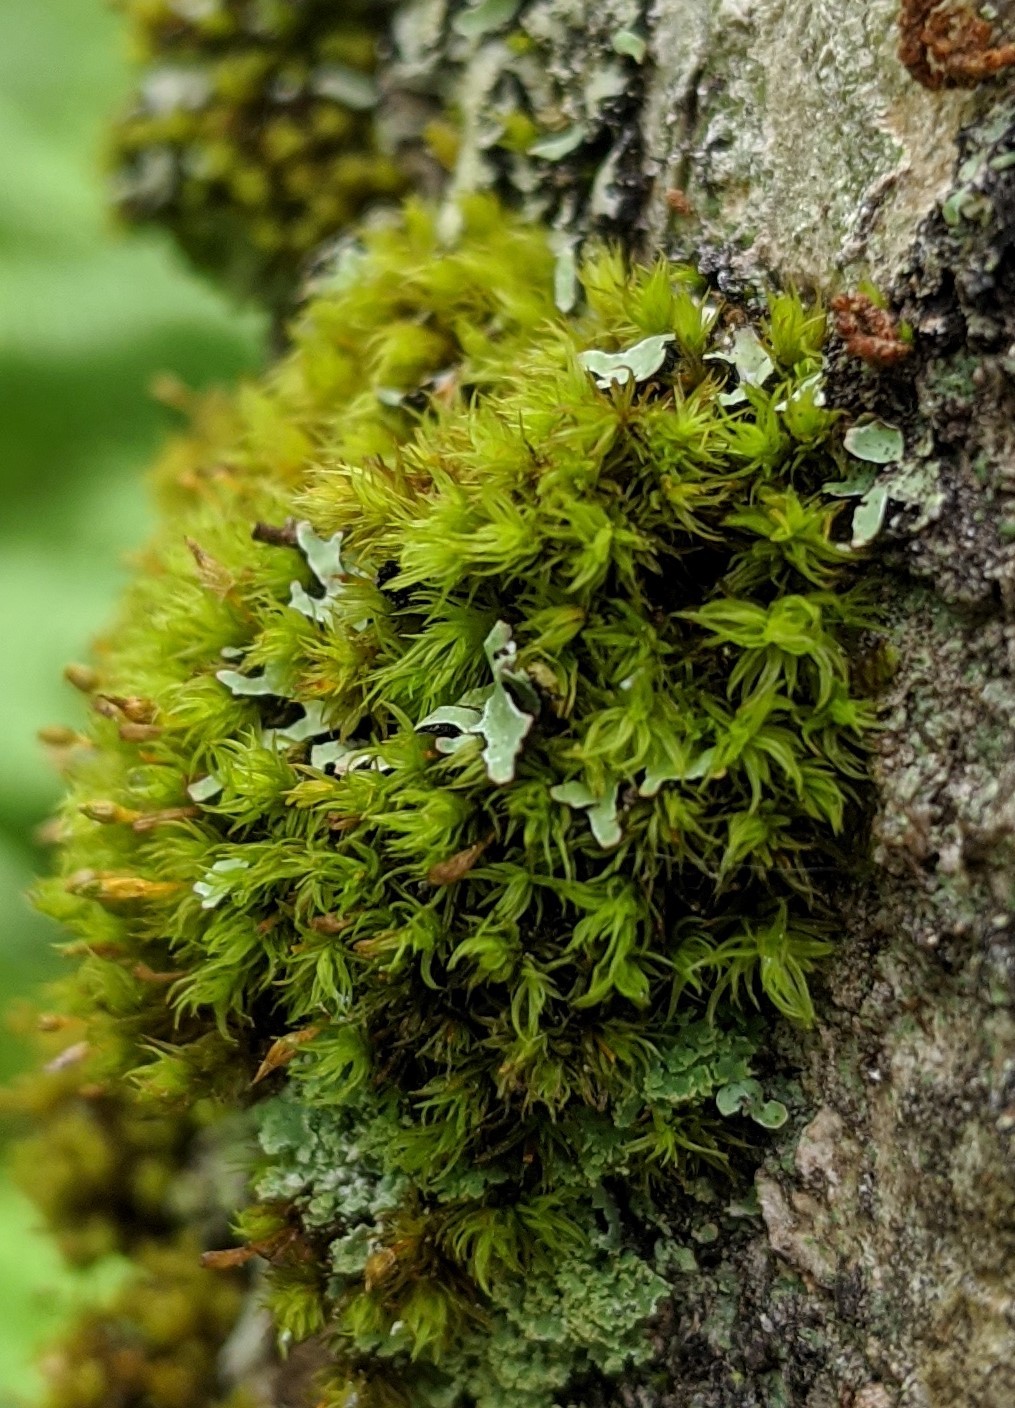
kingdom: Plantae
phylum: Bryophyta
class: Bryopsida
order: Orthotrichales
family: Orthotrichaceae
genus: Ulota
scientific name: Ulota crispa
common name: Crisped pincushion moss
